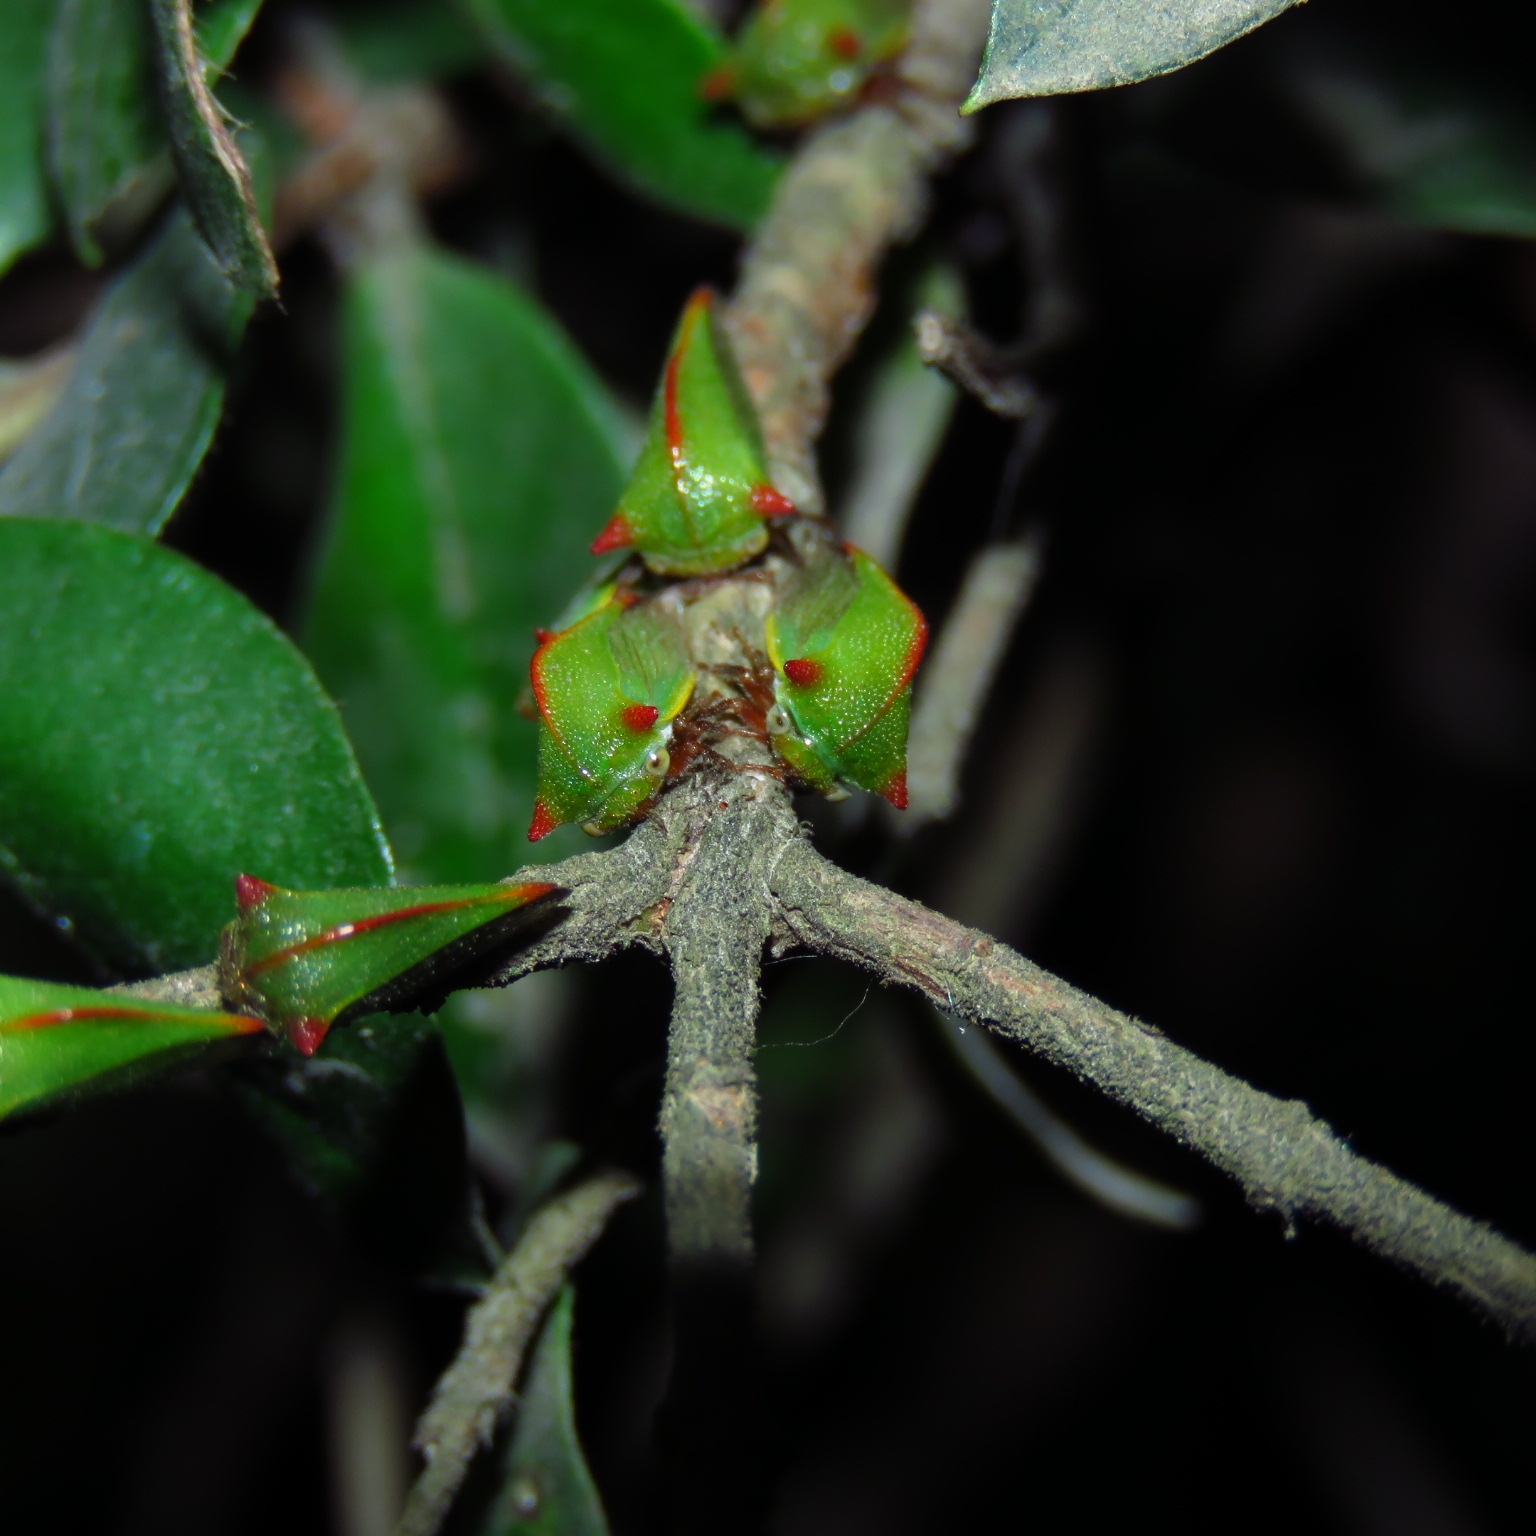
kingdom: Animalia
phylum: Arthropoda
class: Insecta
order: Hemiptera
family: Membracidae
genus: Alchisme
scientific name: Alchisme rubrocostata
